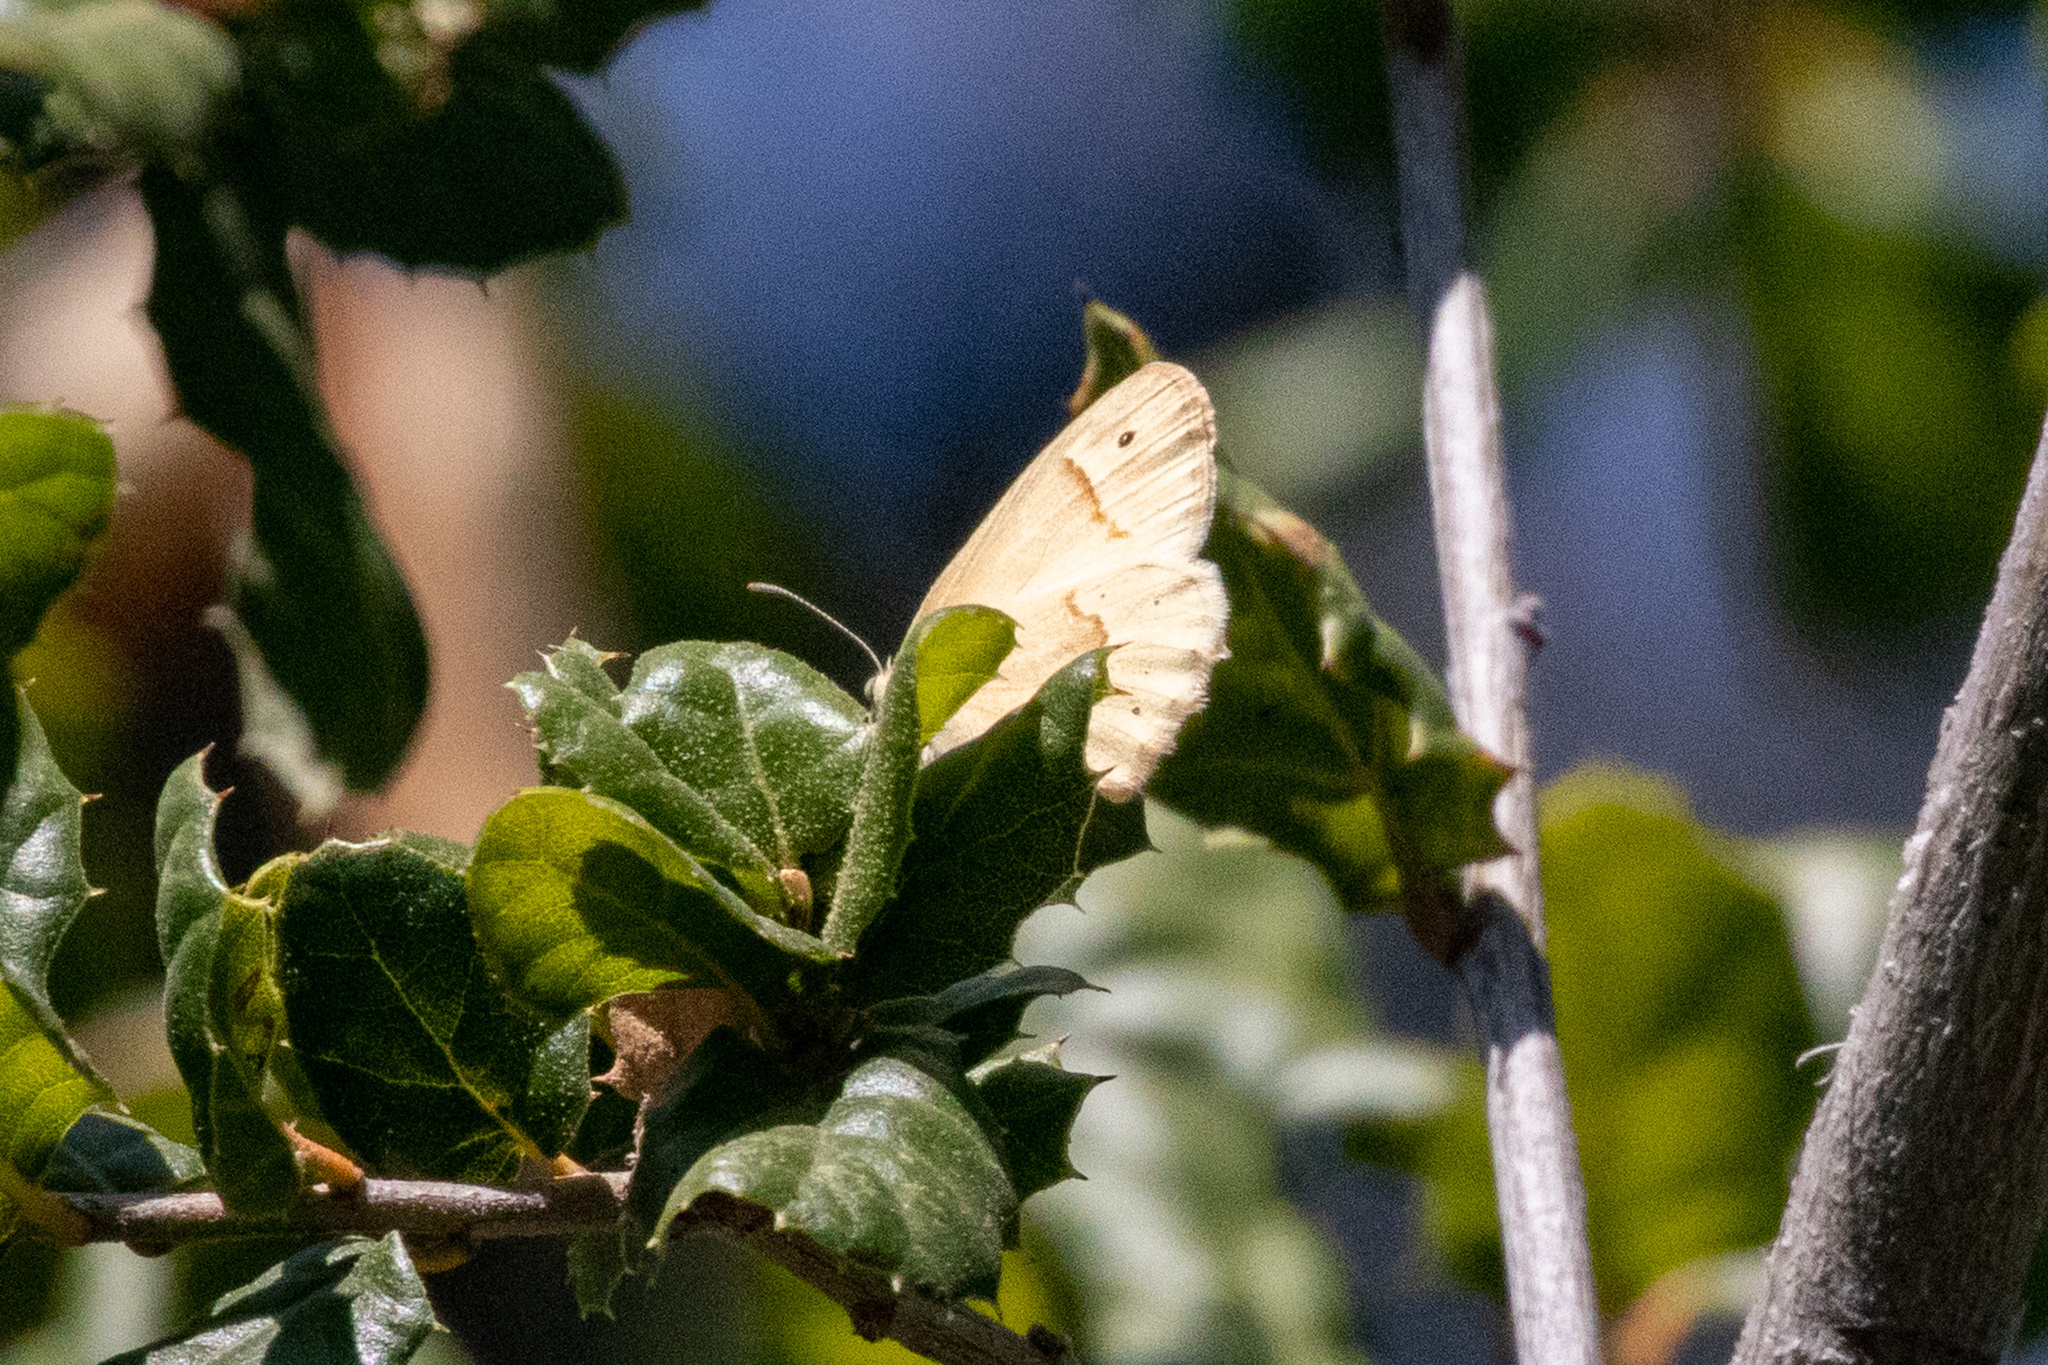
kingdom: Animalia
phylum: Arthropoda
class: Insecta
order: Lepidoptera
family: Nymphalidae
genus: Coenonympha
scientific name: Coenonympha california
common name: Common ringlet
